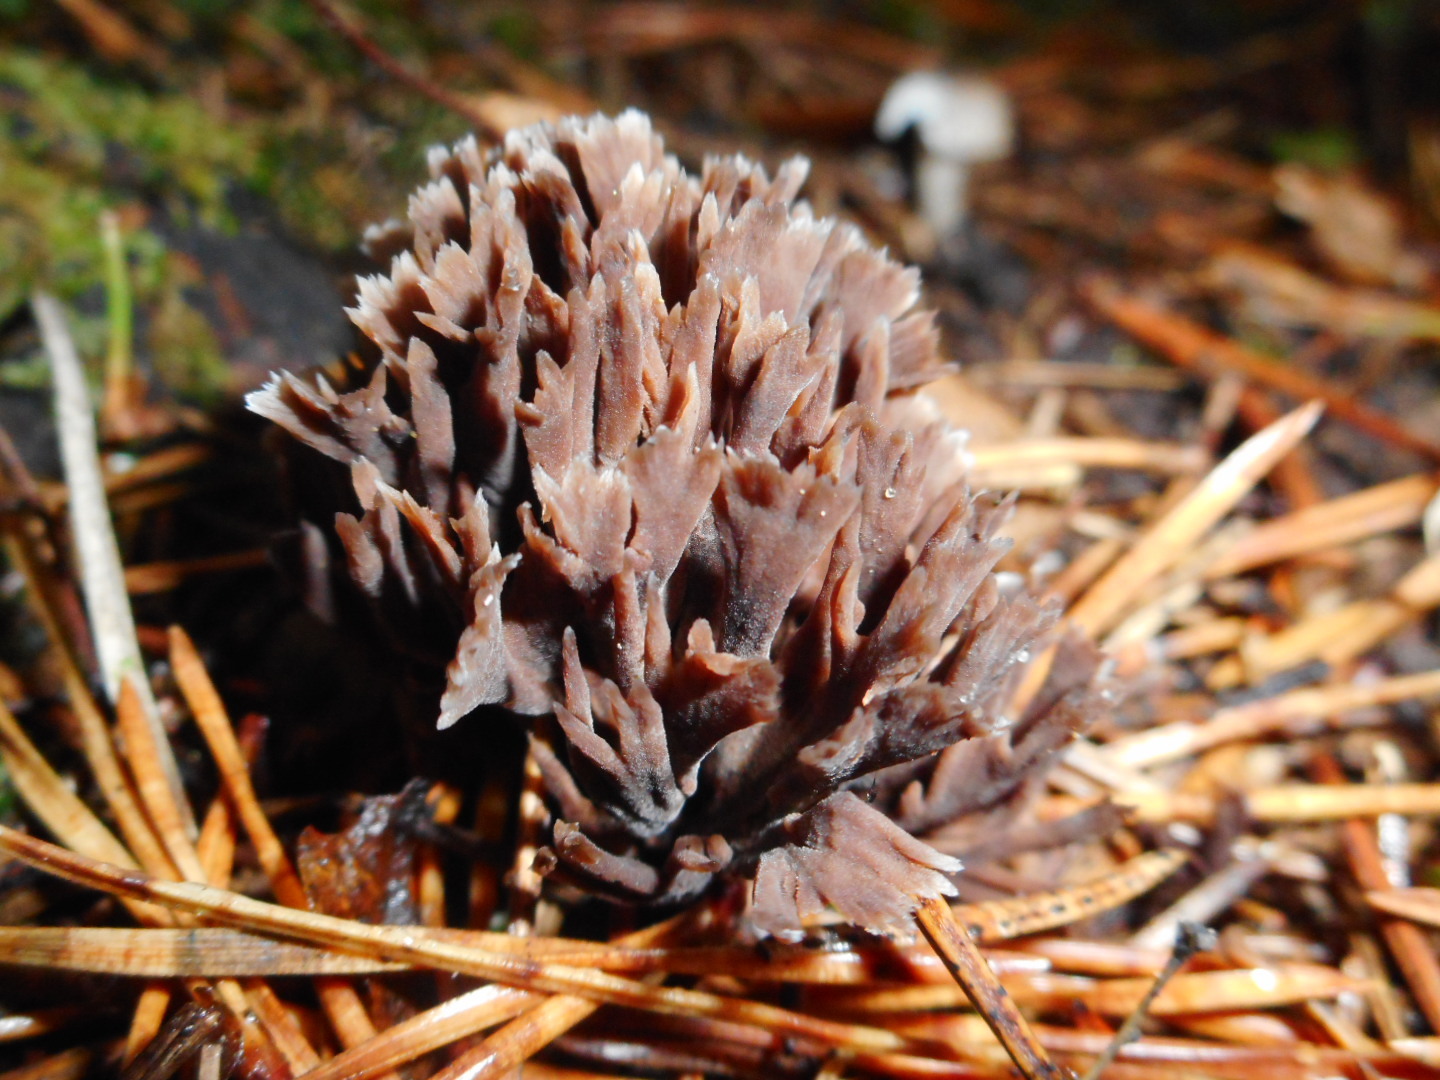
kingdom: Fungi
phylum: Basidiomycota
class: Agaricomycetes
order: Thelephorales
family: Thelephoraceae
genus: Thelephora
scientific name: Thelephora palmata
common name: Stinking earthfan
